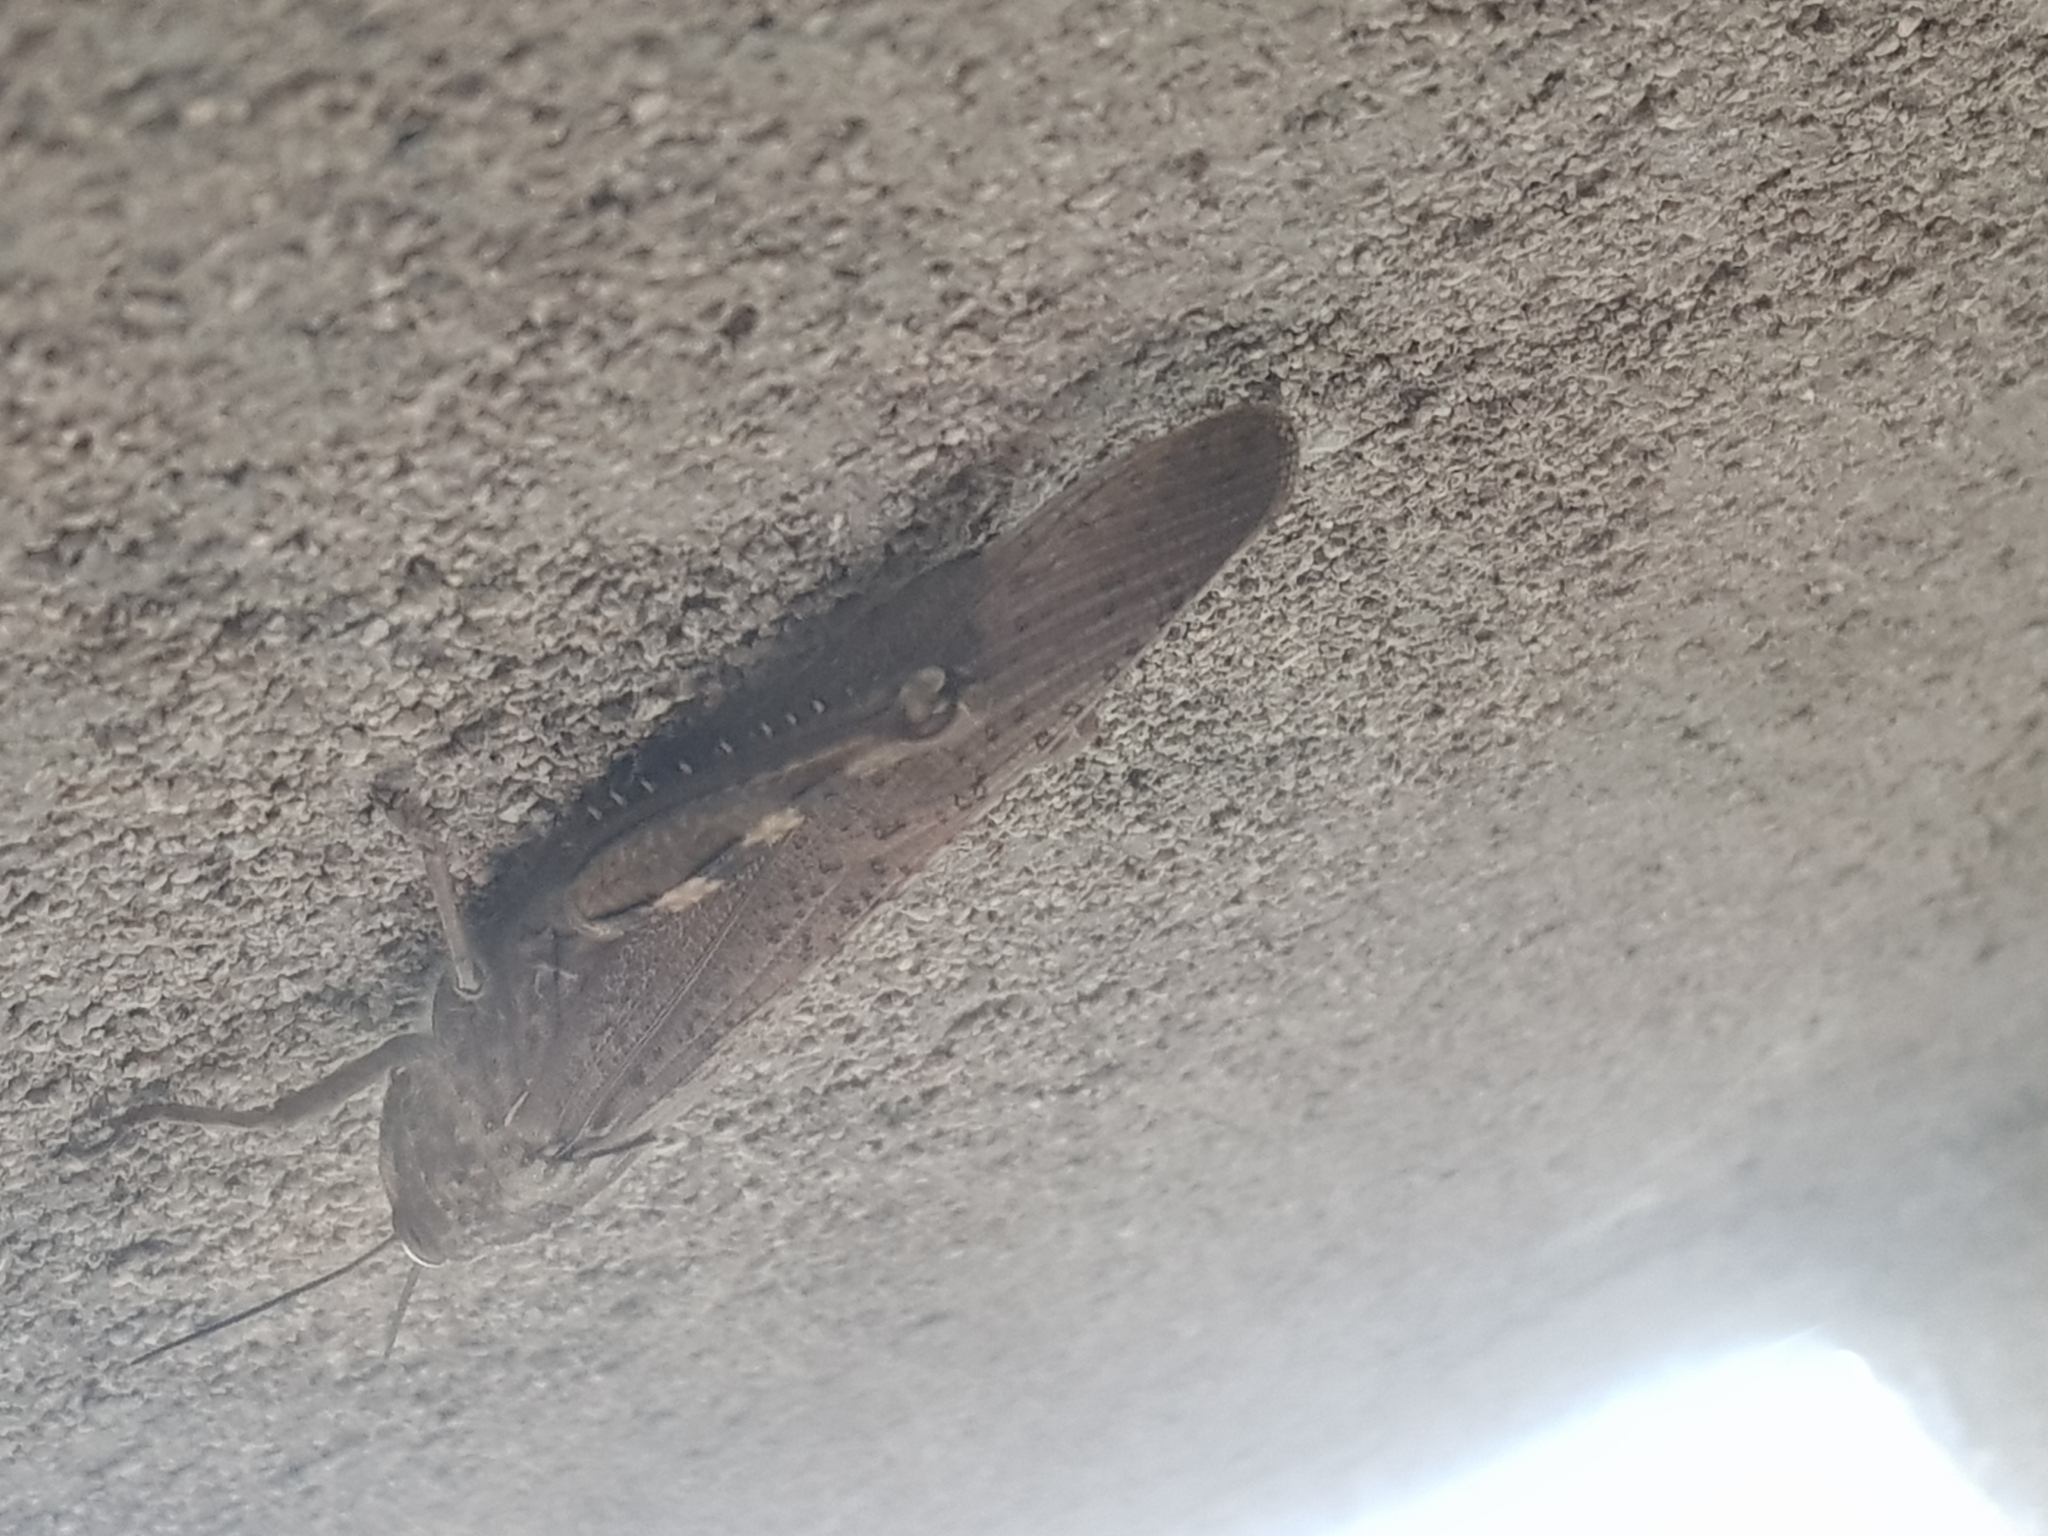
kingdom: Animalia
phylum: Arthropoda
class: Insecta
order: Orthoptera
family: Acrididae
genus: Anacridium
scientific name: Anacridium aegyptium
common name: Egyptian grasshopper
